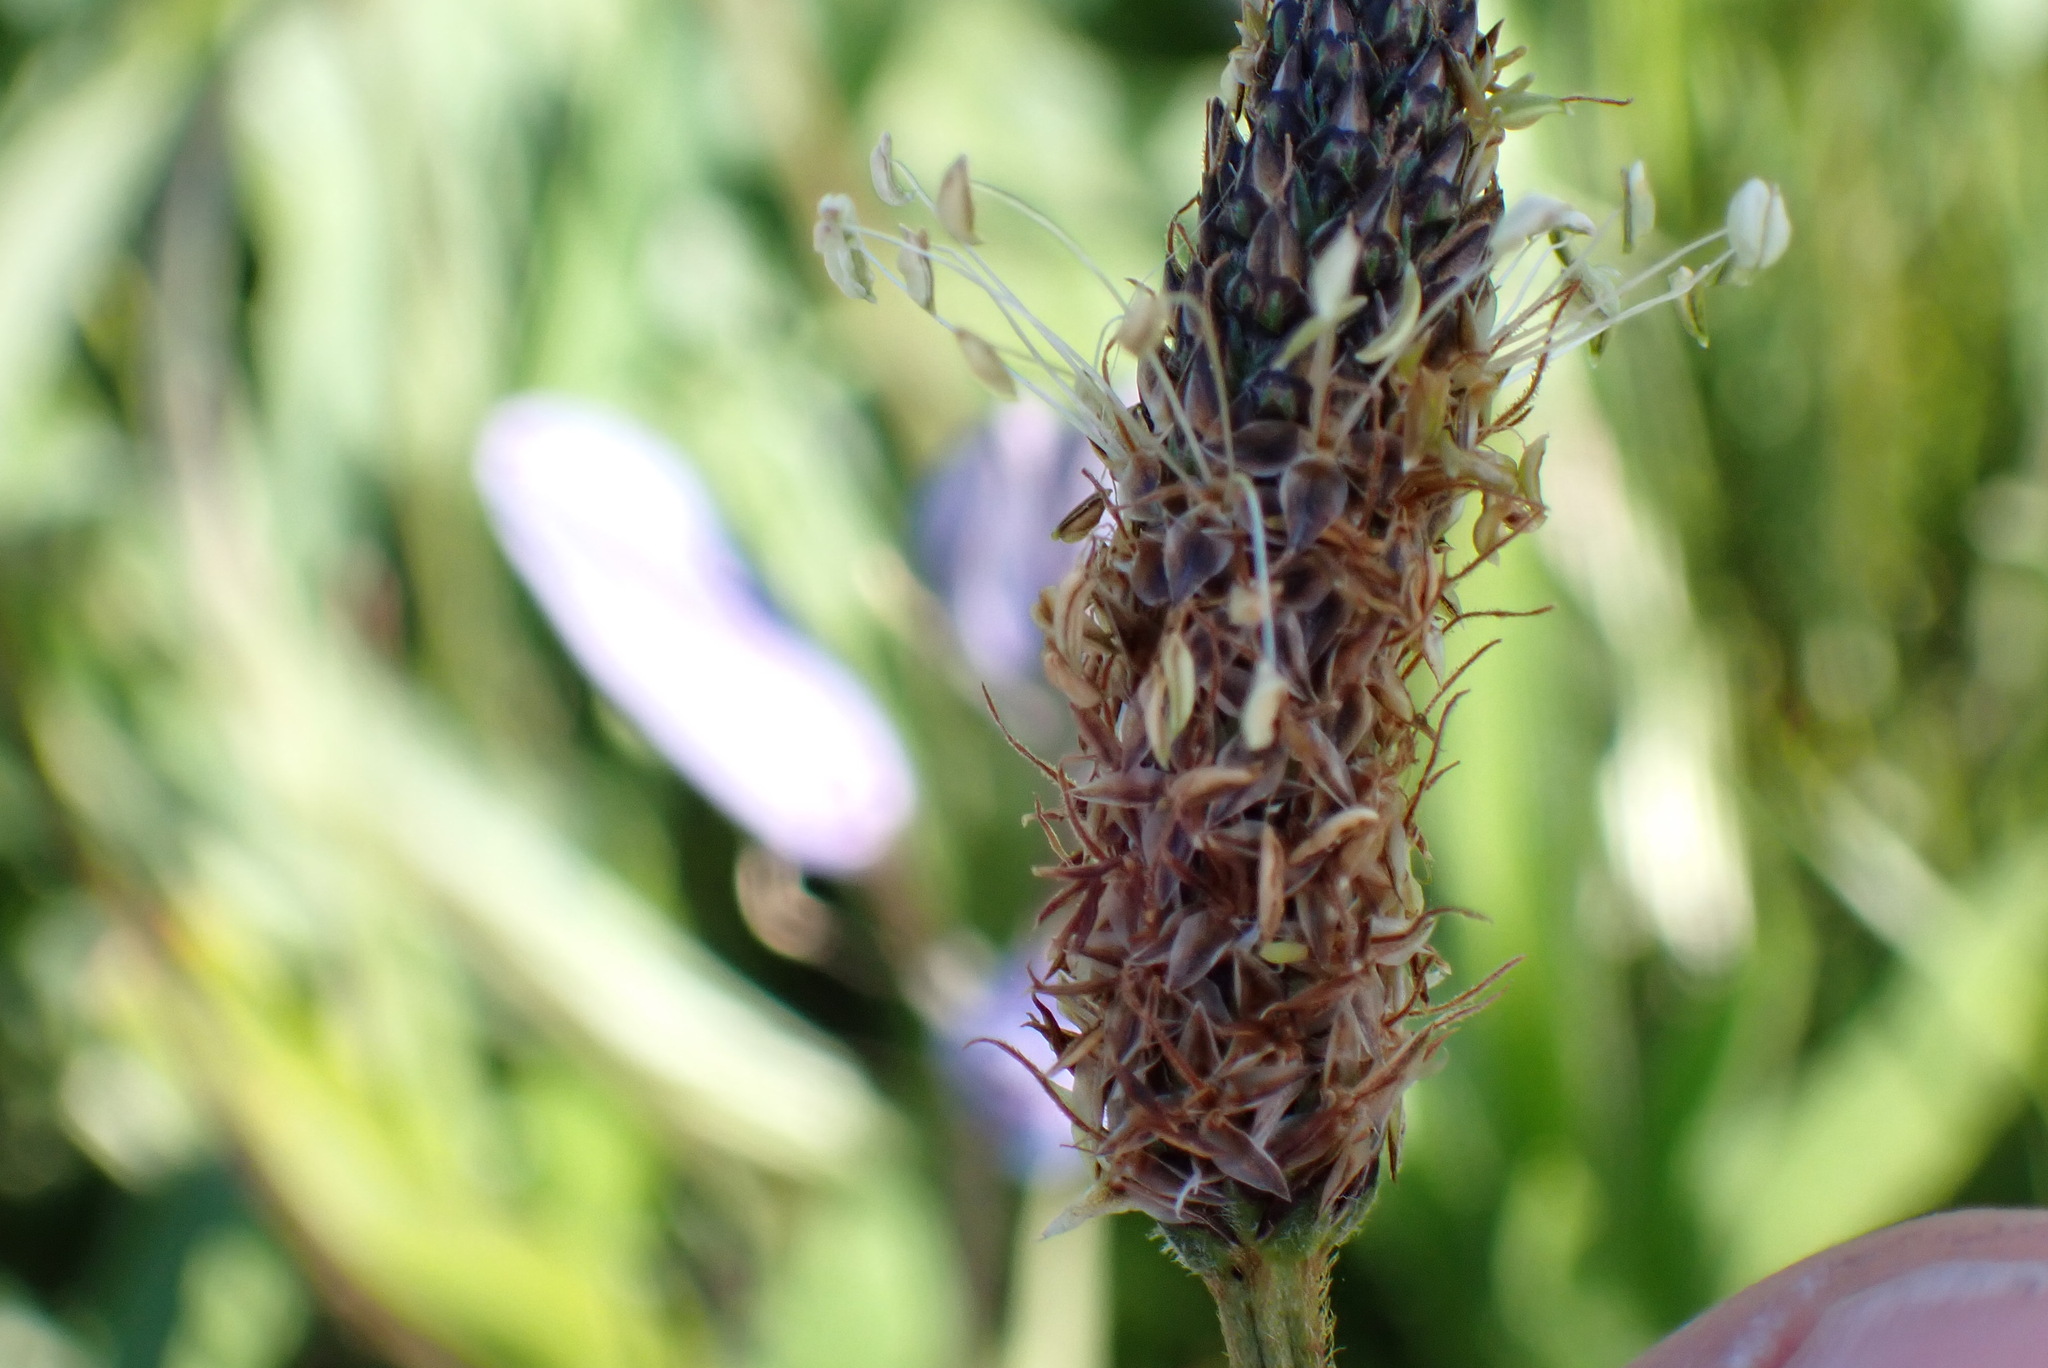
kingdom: Plantae
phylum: Tracheophyta
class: Magnoliopsida
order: Lamiales
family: Plantaginaceae
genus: Plantago
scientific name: Plantago lanceolata
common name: Ribwort plantain
